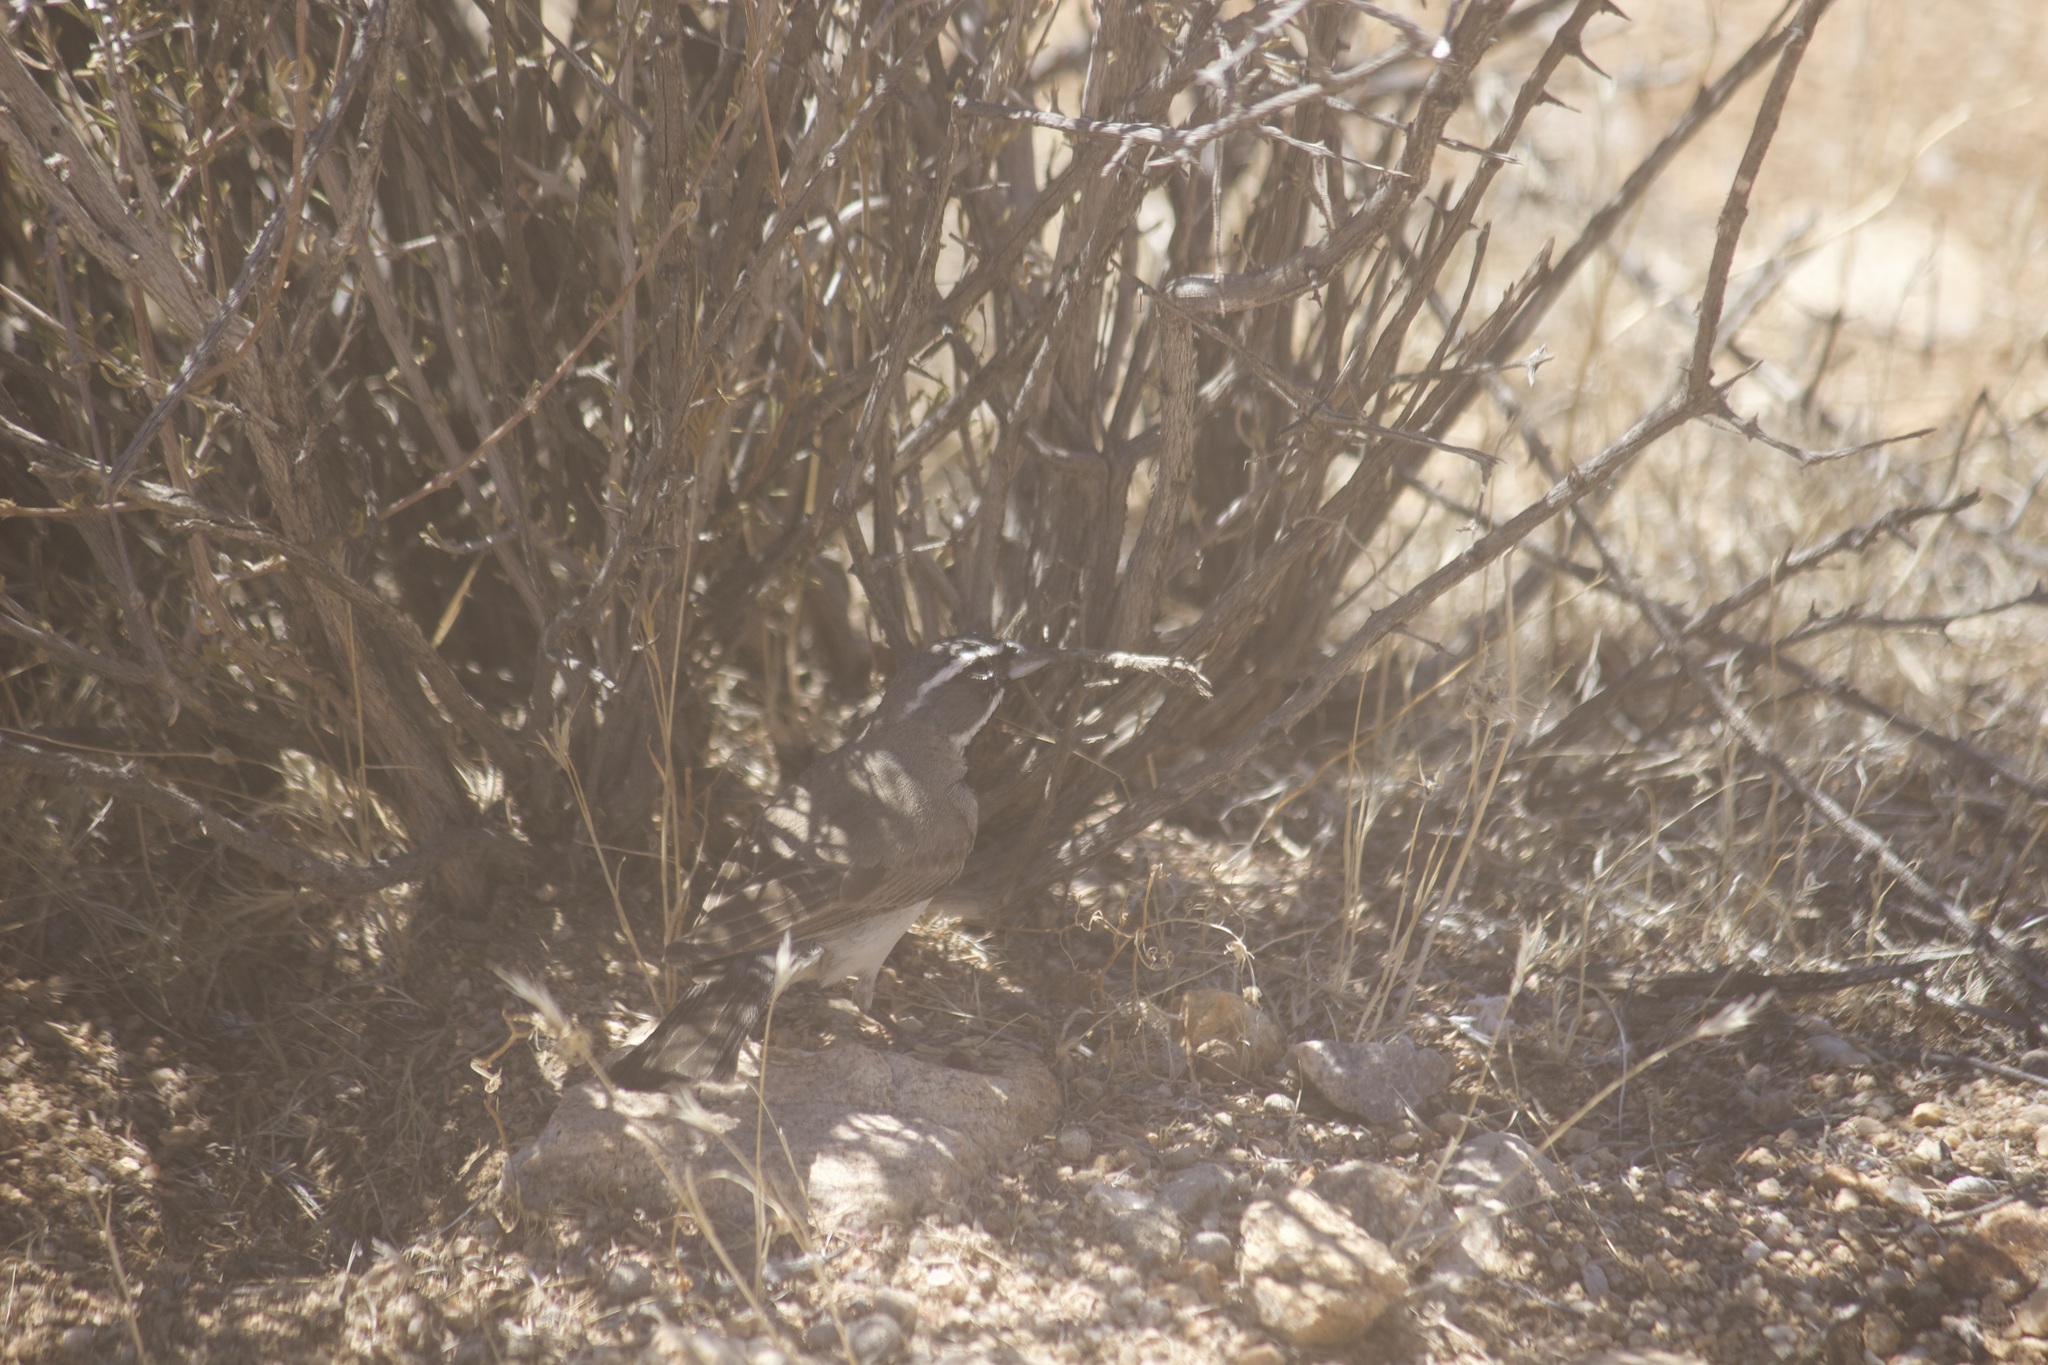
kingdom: Animalia
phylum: Chordata
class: Aves
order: Passeriformes
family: Passerellidae
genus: Amphispiza
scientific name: Amphispiza bilineata
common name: Black-throated sparrow
